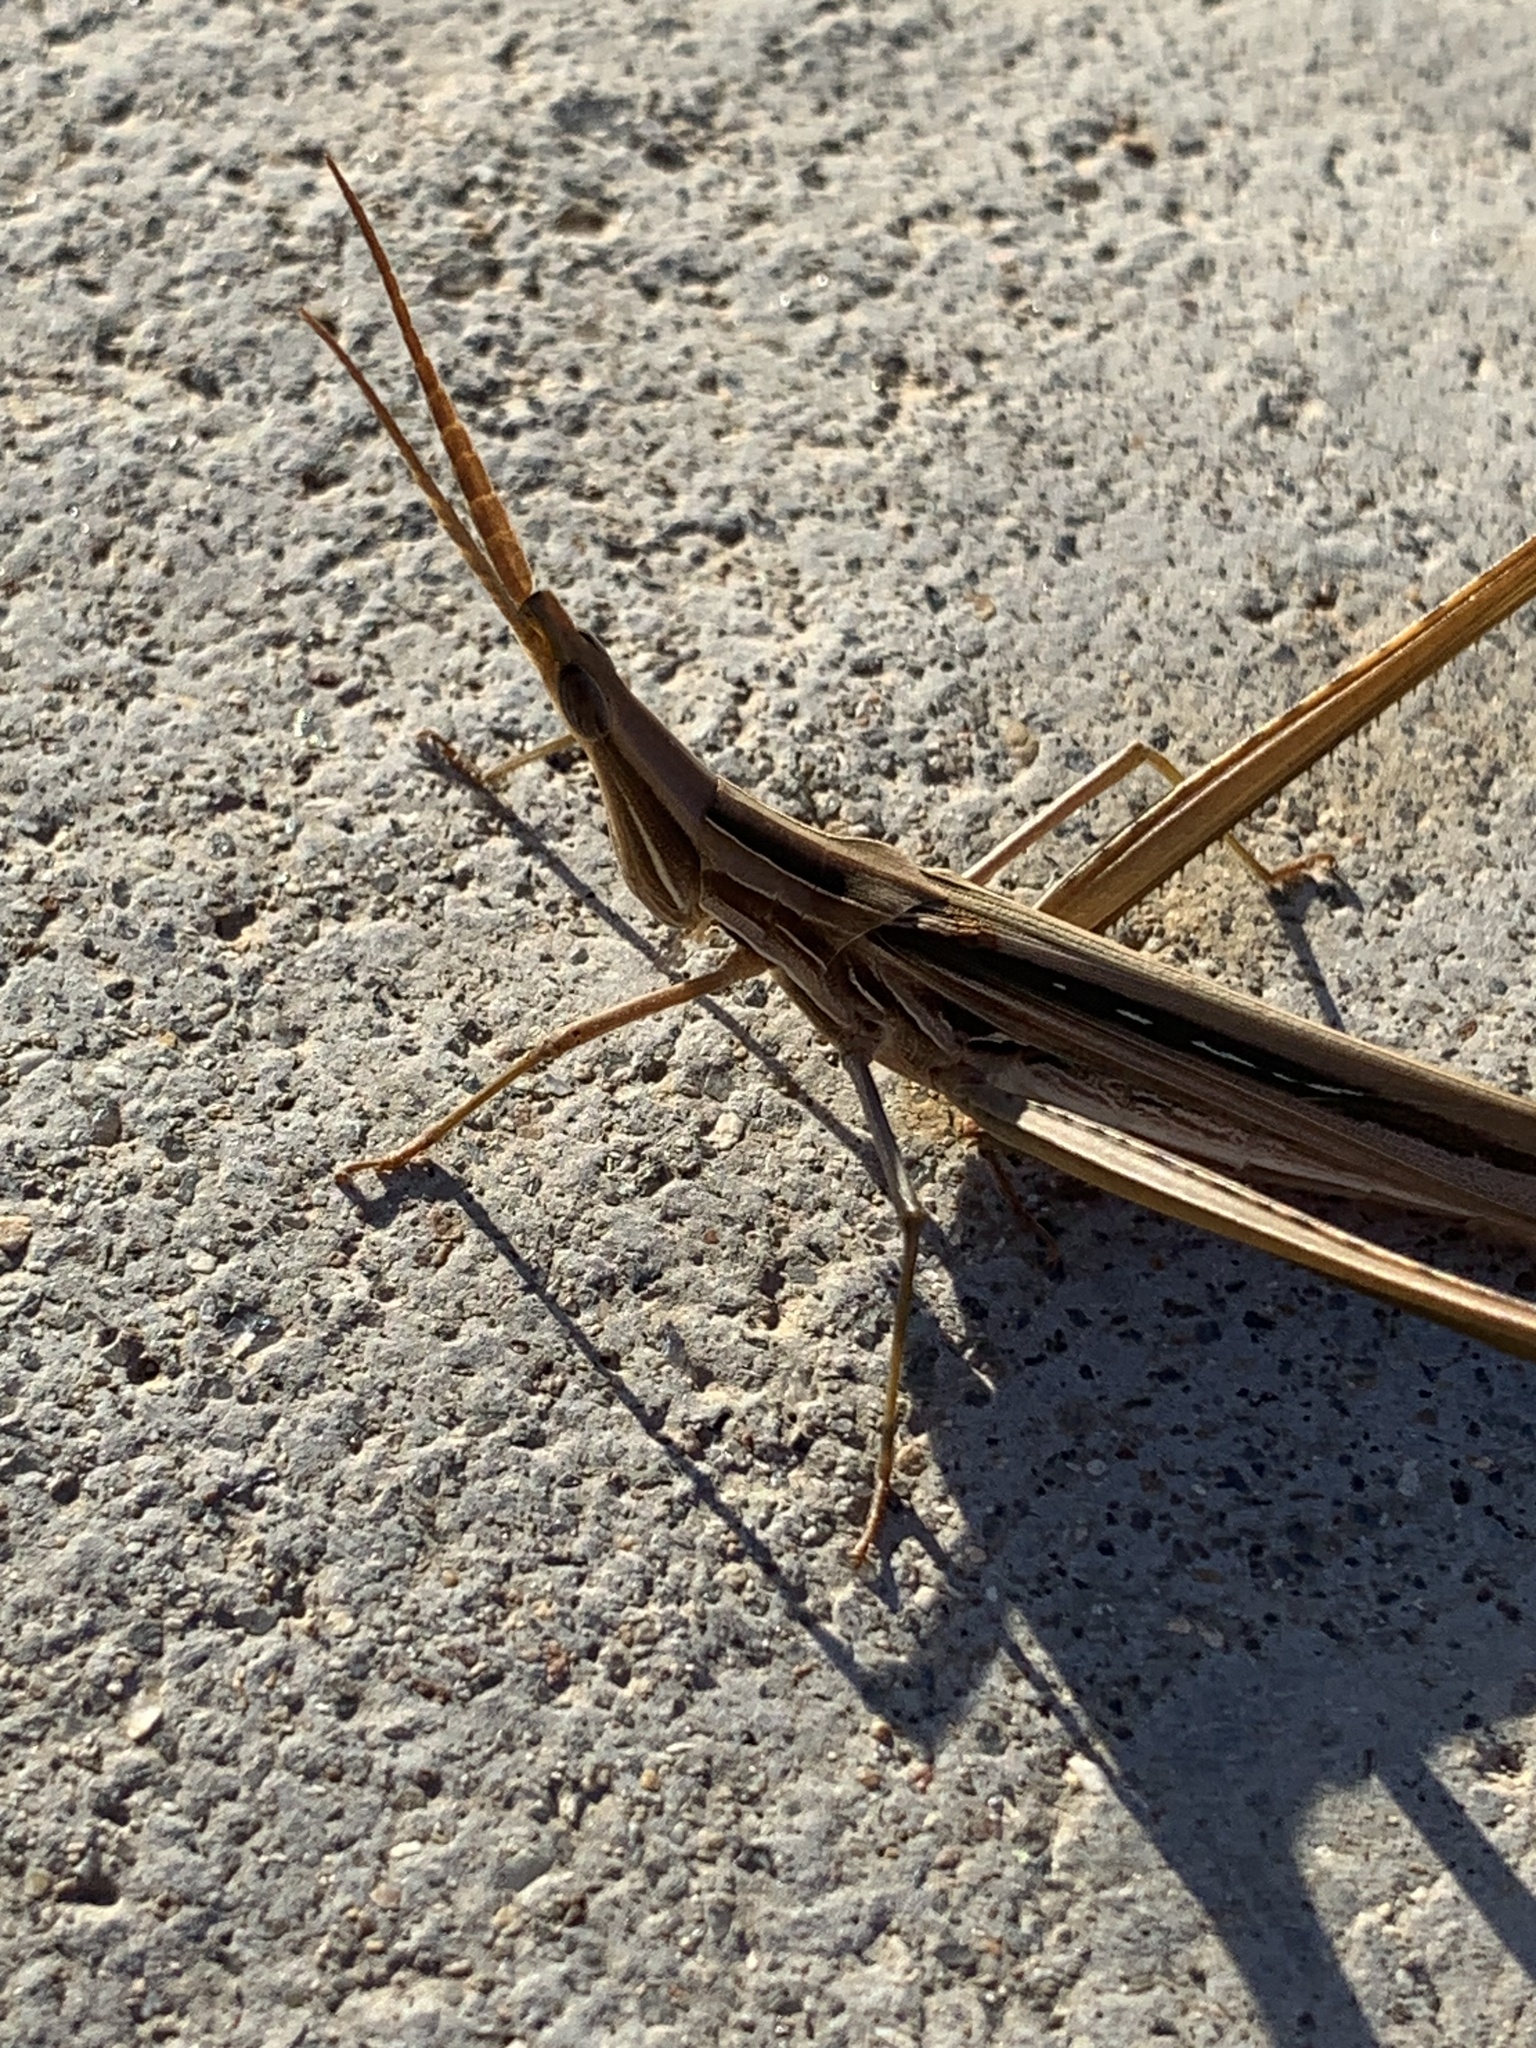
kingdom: Animalia
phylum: Arthropoda
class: Insecta
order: Orthoptera
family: Acrididae
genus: Acrida
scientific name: Acrida conica
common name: Giant green slantface
